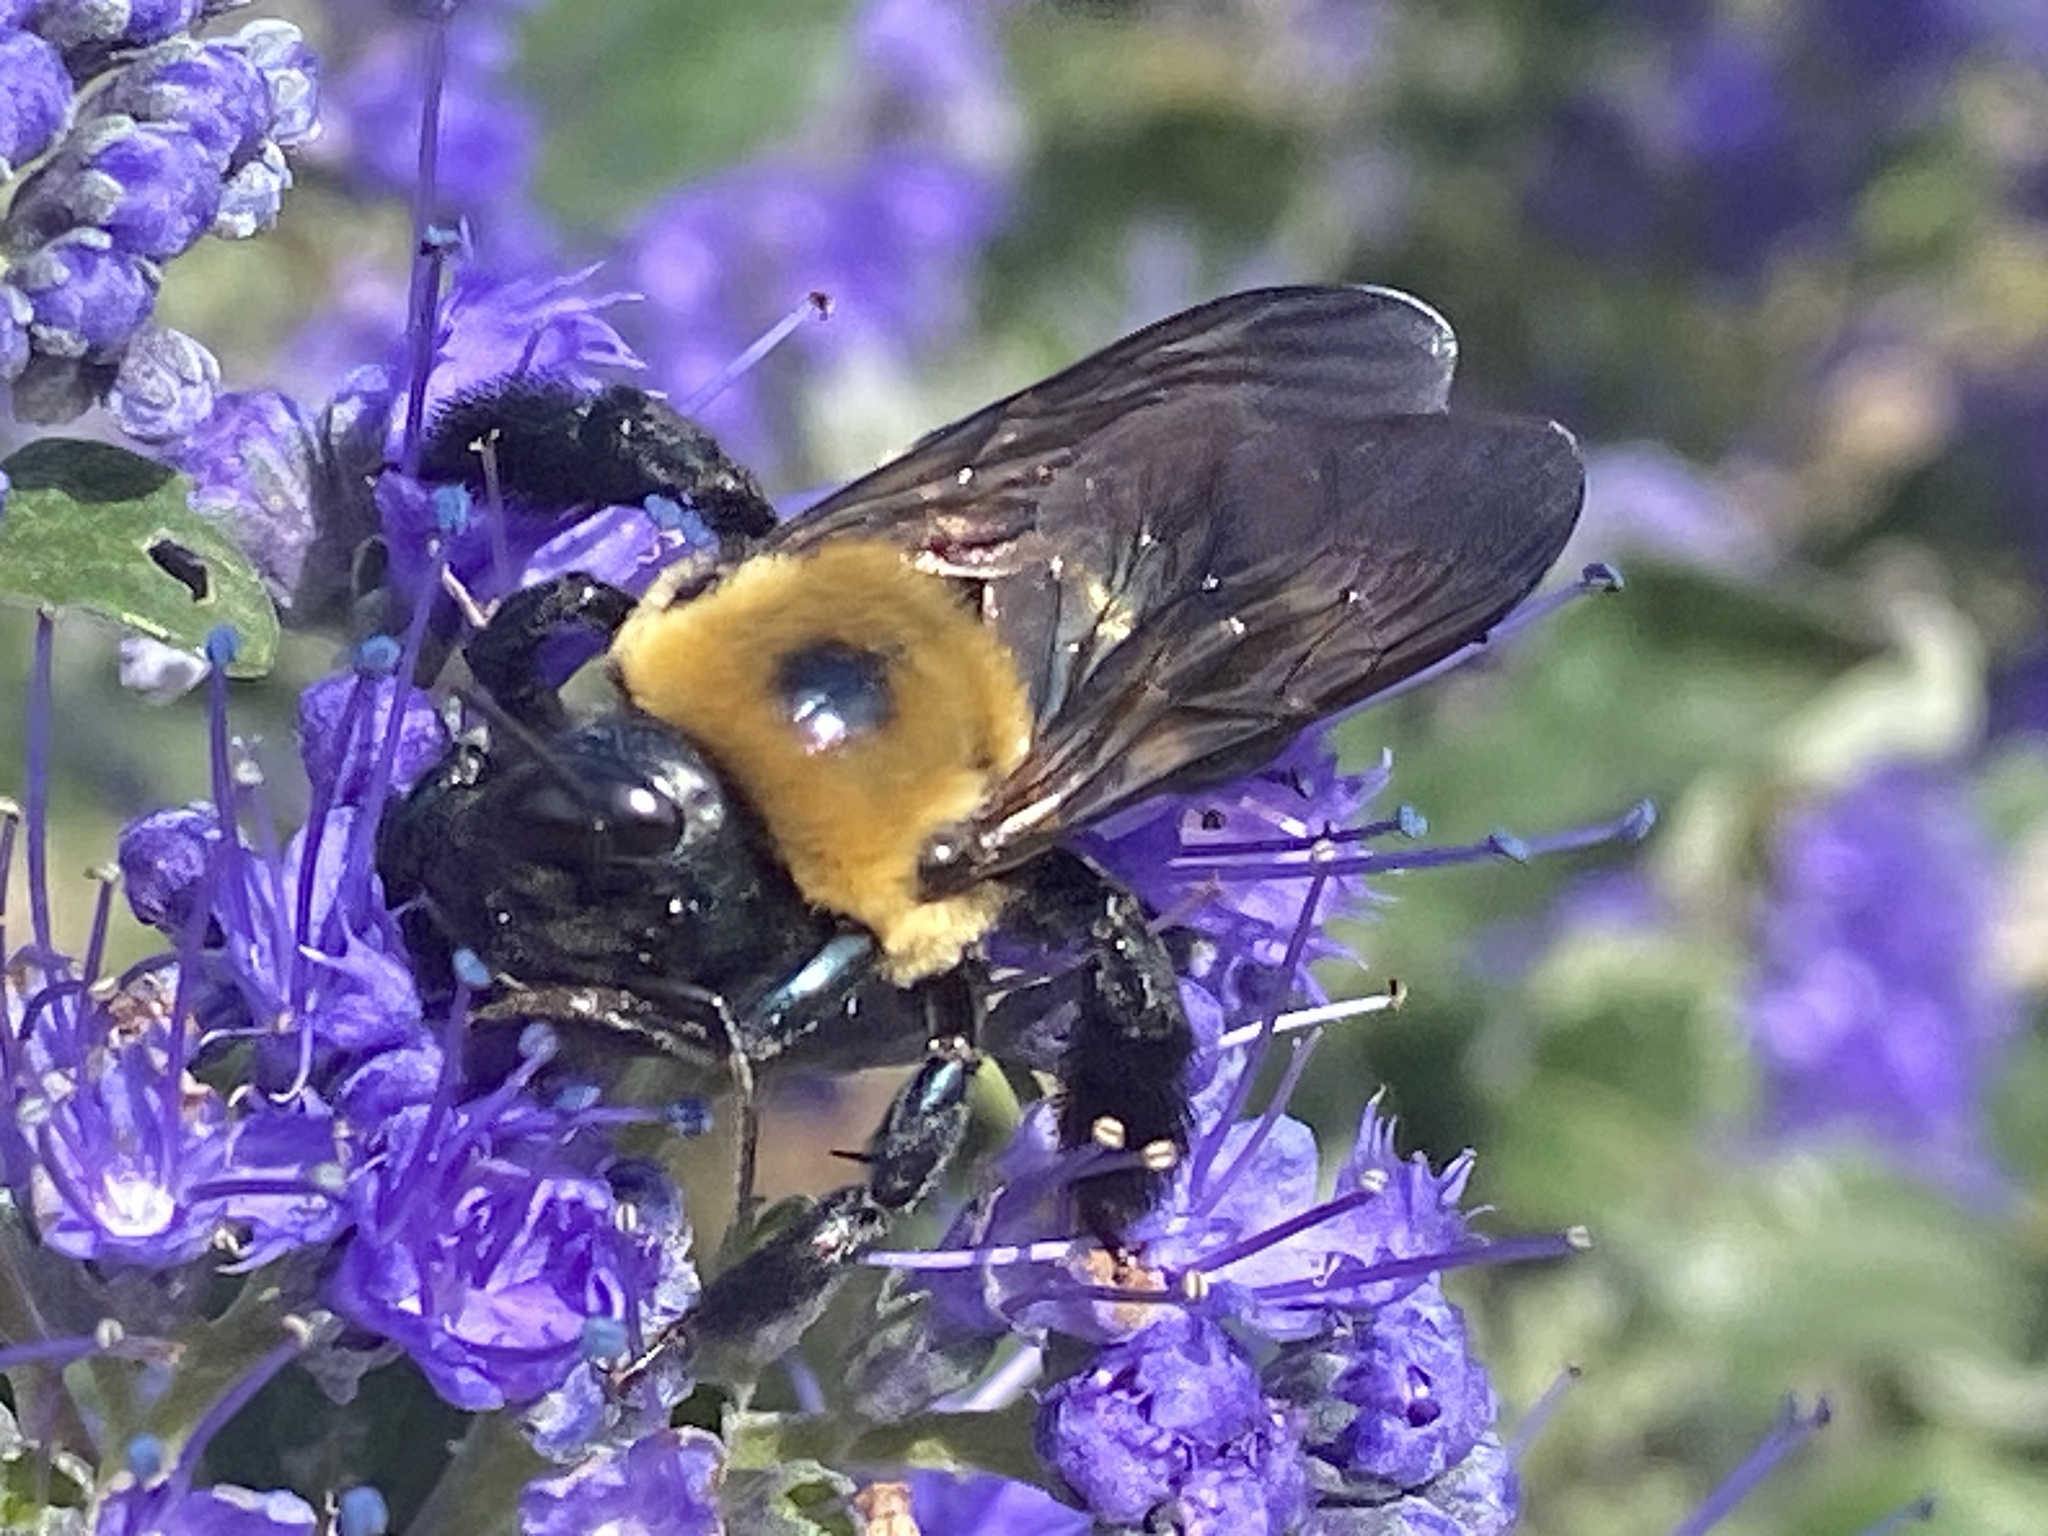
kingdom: Animalia
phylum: Arthropoda
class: Insecta
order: Hymenoptera
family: Apidae
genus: Xylocopa
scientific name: Xylocopa virginica
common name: Carpenter bee
